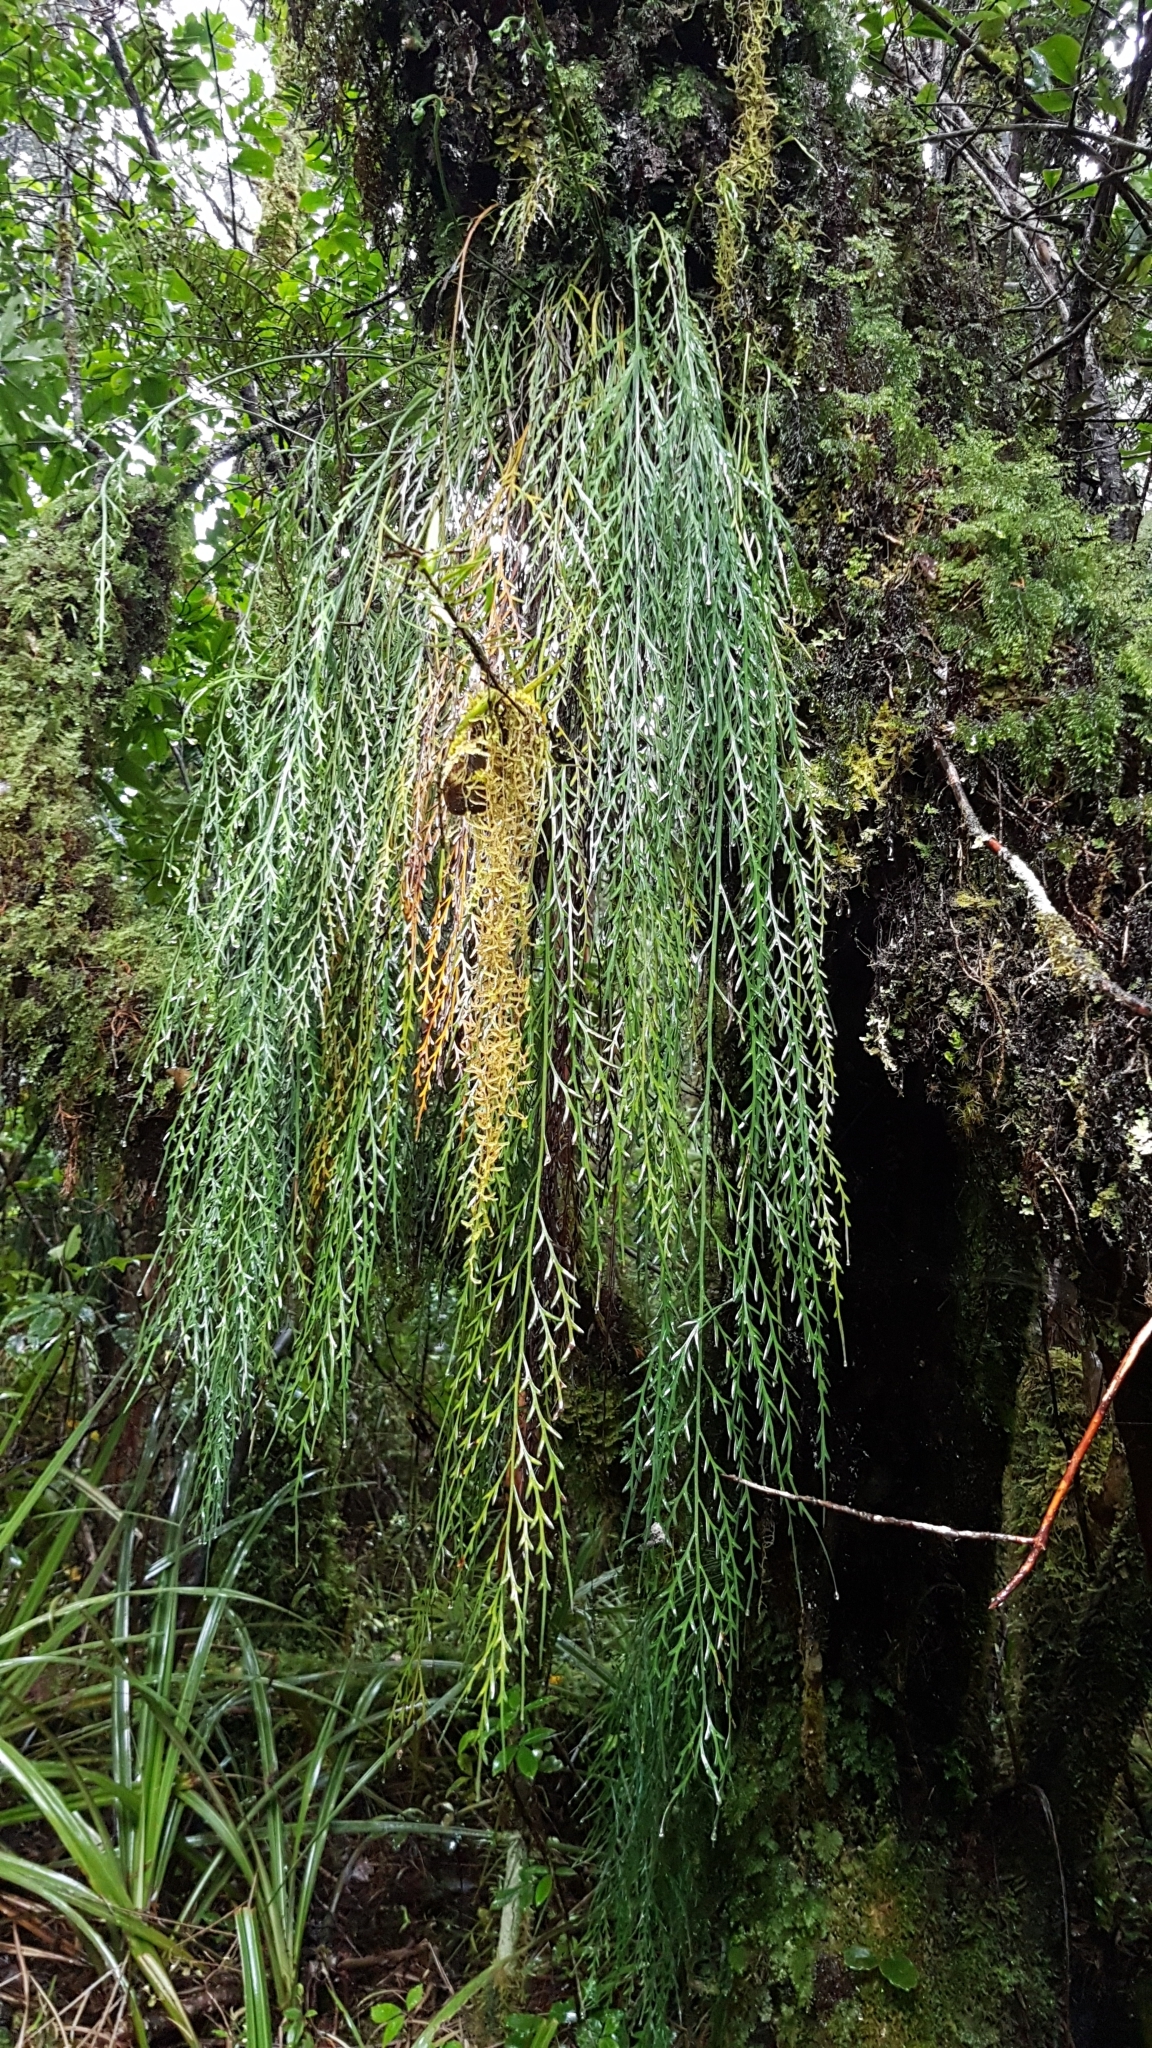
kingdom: Plantae
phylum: Tracheophyta
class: Polypodiopsida
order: Polypodiales
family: Aspleniaceae
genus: Asplenium
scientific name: Asplenium flaccidum
